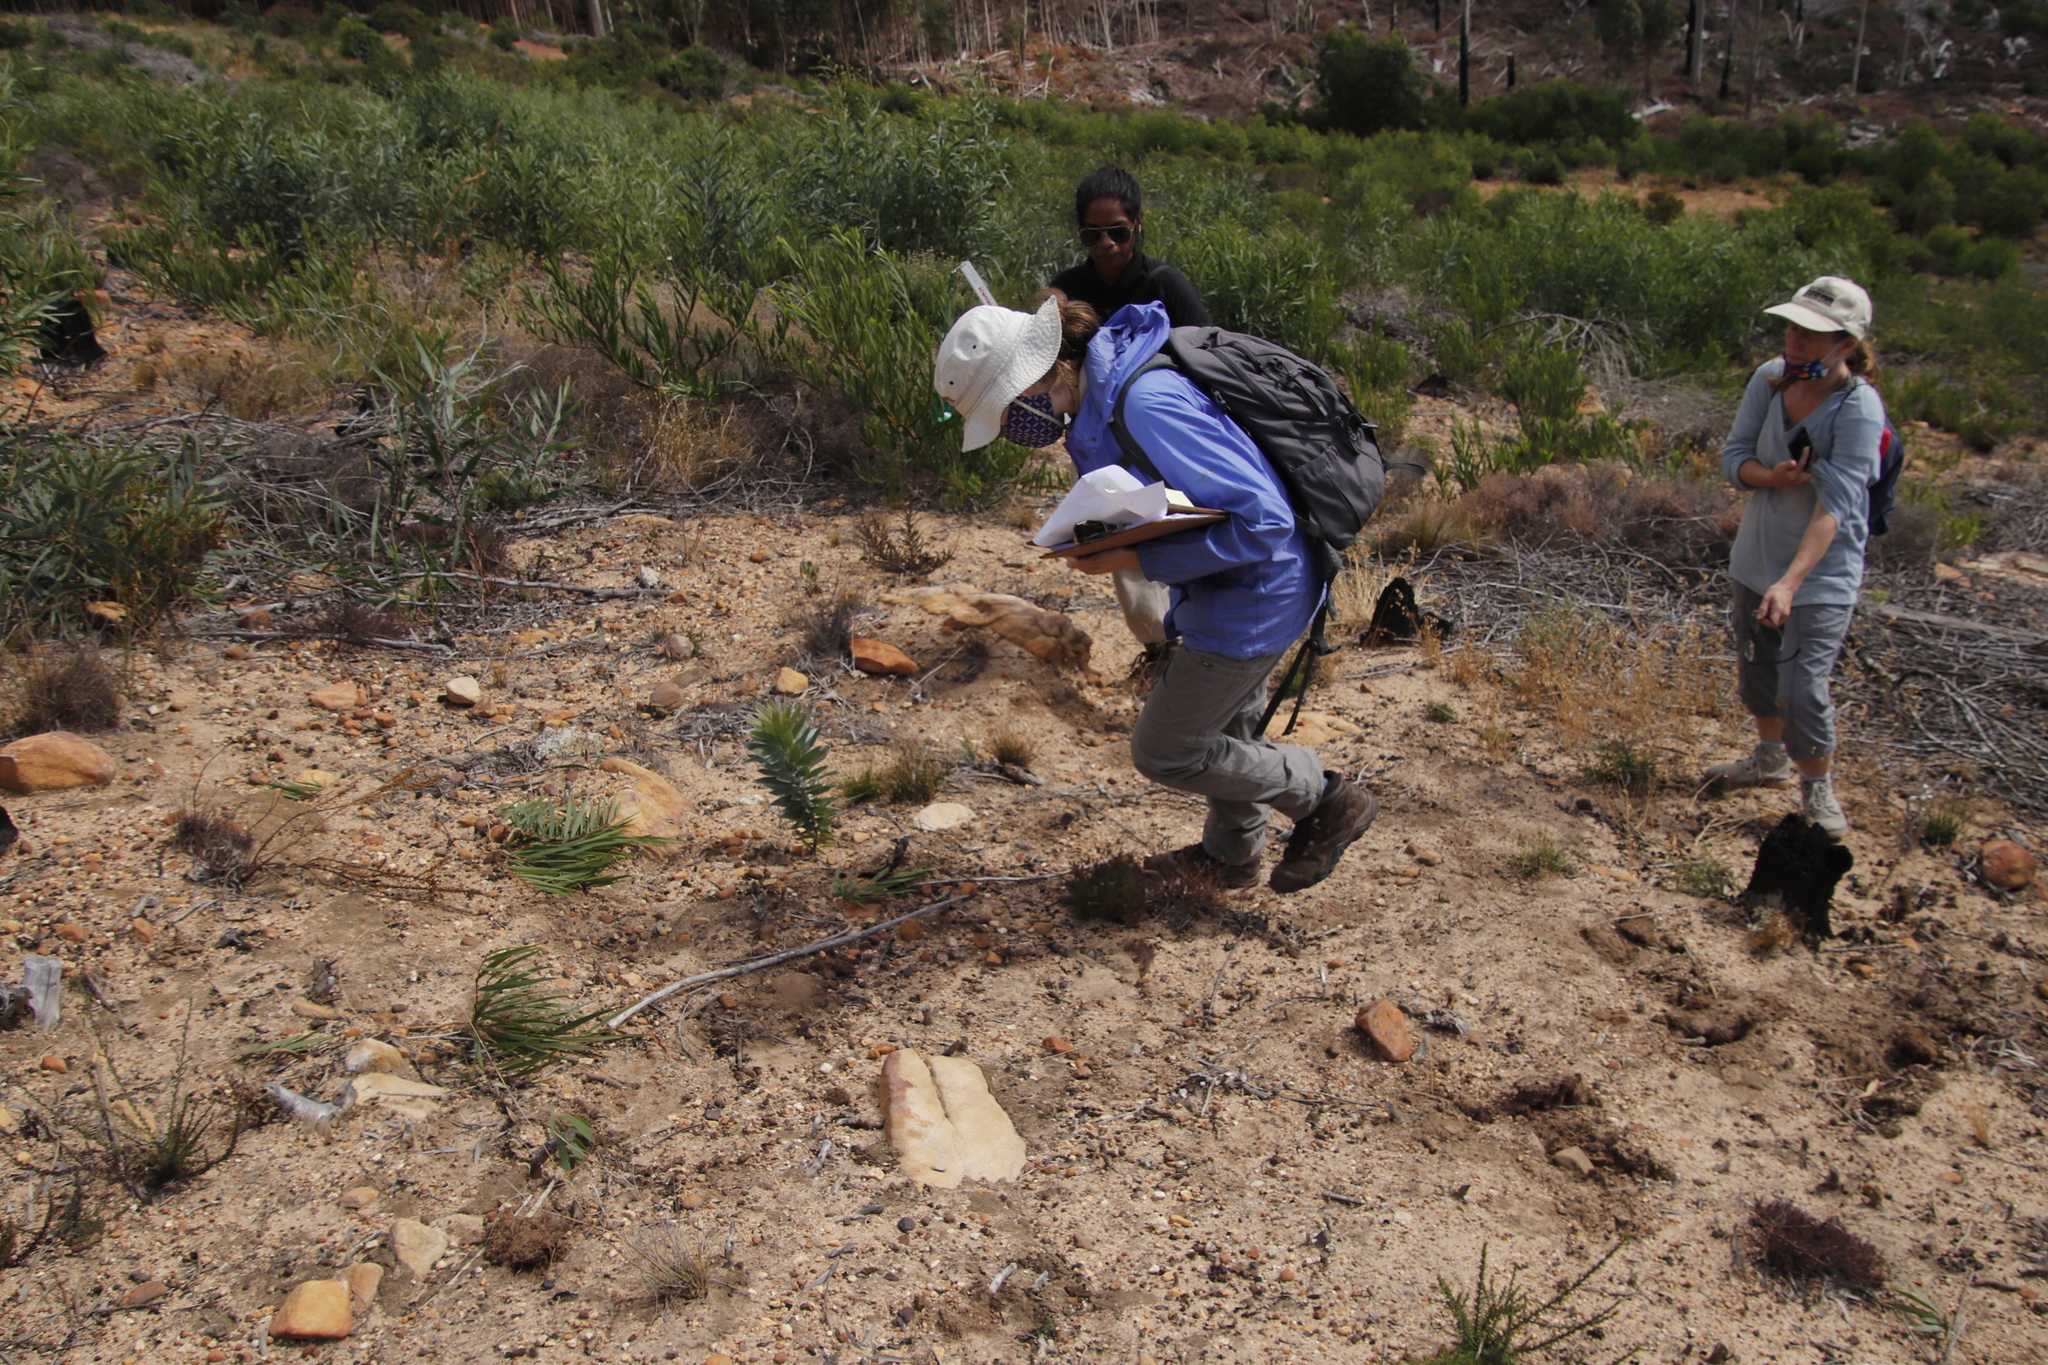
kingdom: Plantae
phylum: Tracheophyta
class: Magnoliopsida
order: Proteales
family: Proteaceae
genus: Leucadendron
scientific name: Leucadendron argenteum
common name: Cape silver tree
